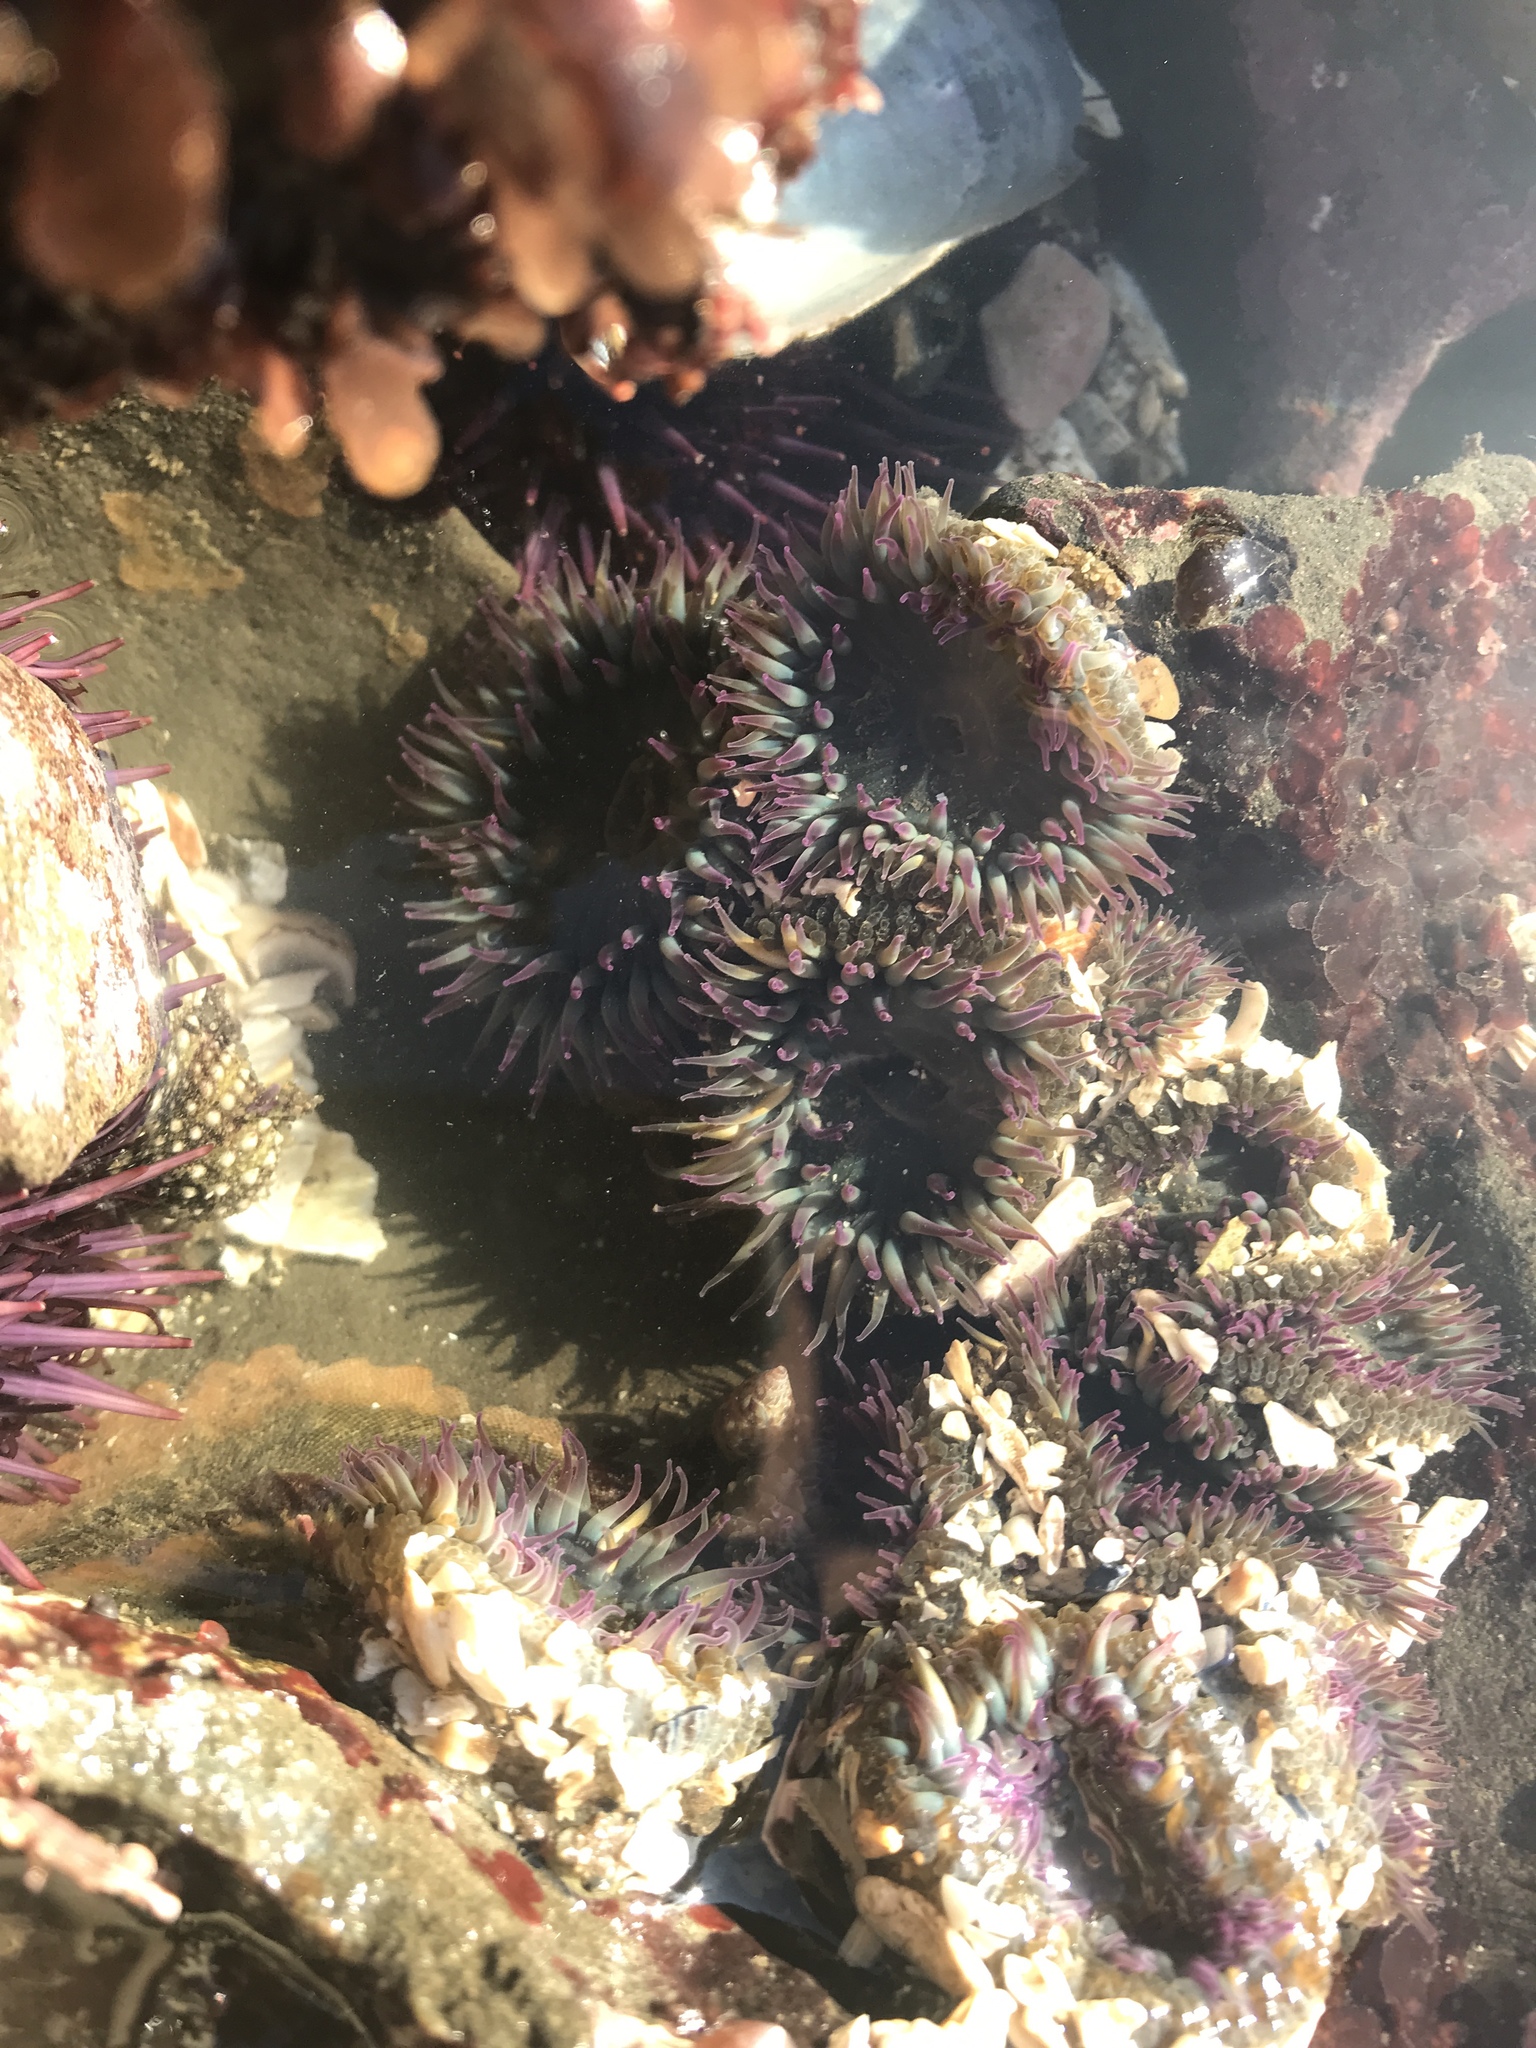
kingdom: Animalia
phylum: Cnidaria
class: Anthozoa
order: Actiniaria
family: Actiniidae
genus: Anthopleura
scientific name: Anthopleura elegantissima
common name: Clonal anemone
